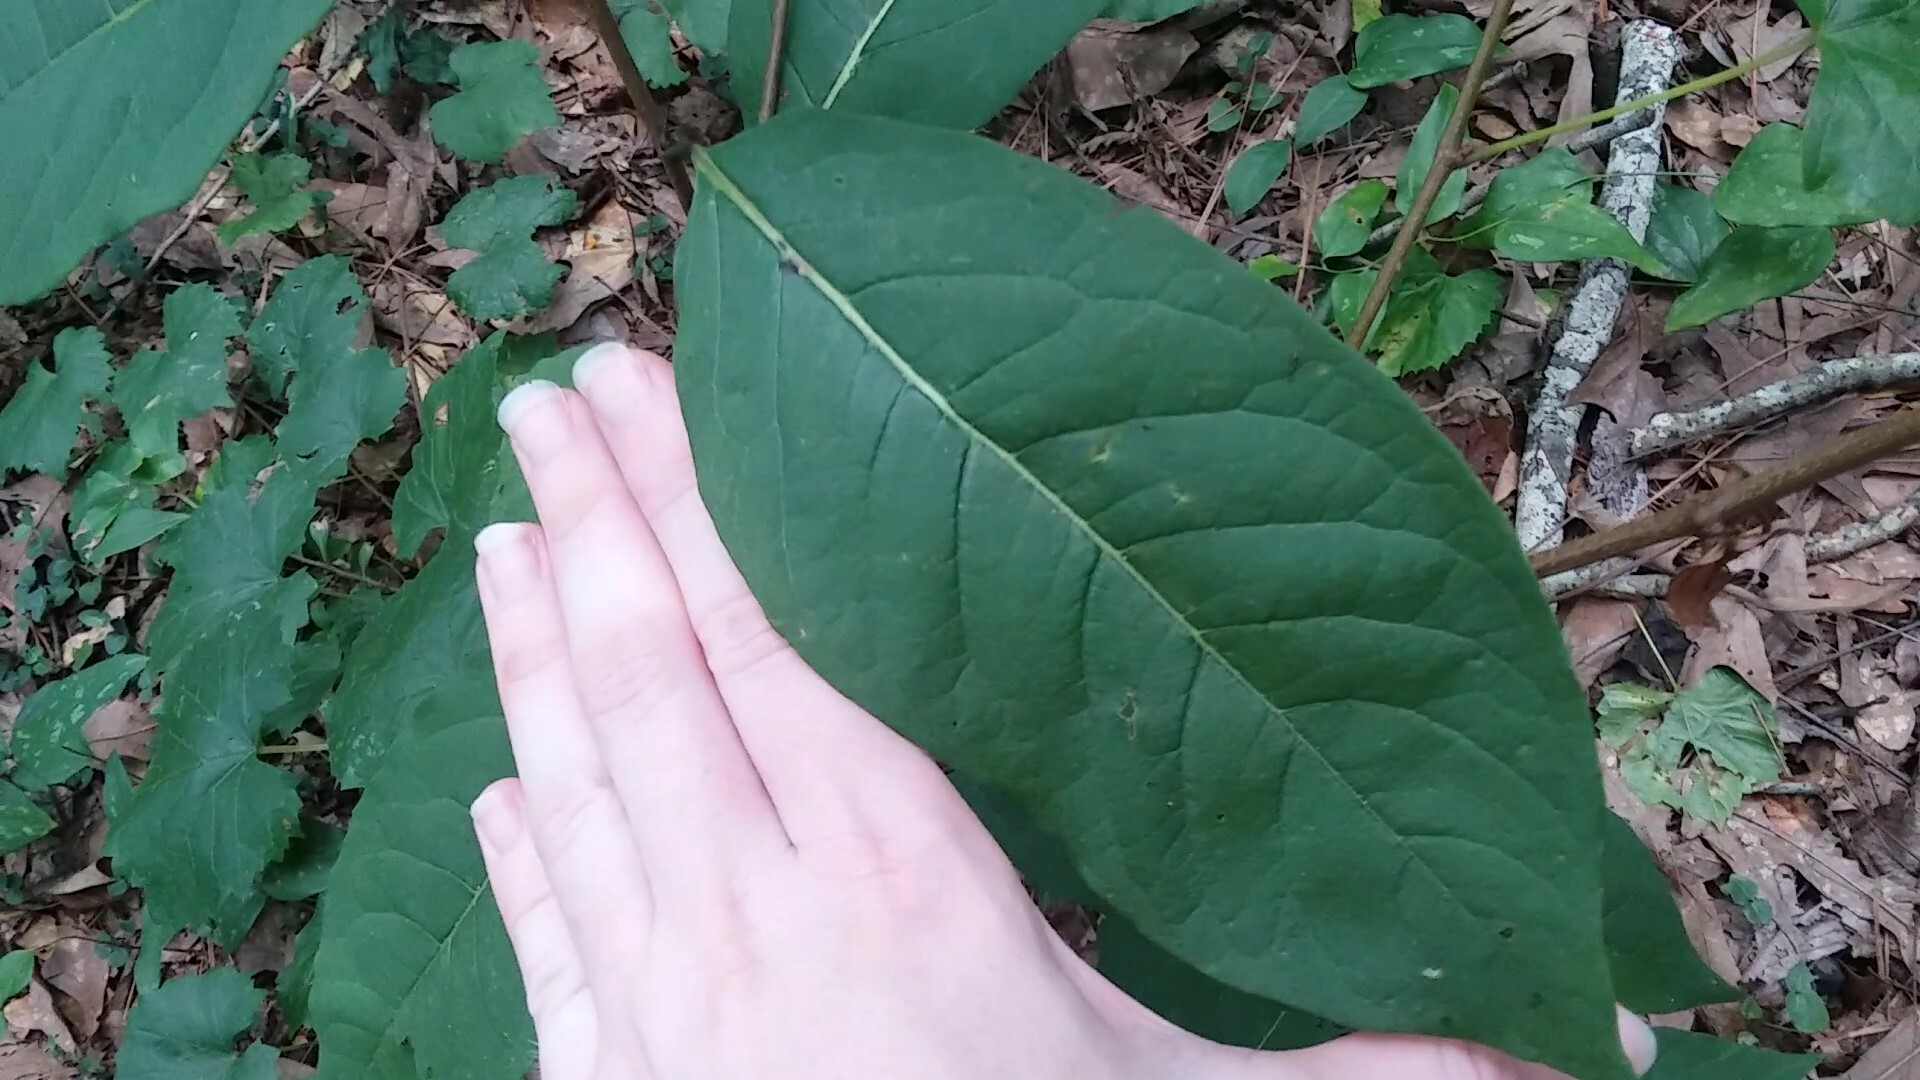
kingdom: Plantae
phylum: Tracheophyta
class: Magnoliopsida
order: Ericales
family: Ebenaceae
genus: Diospyros
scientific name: Diospyros virginiana
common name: Persimmon
